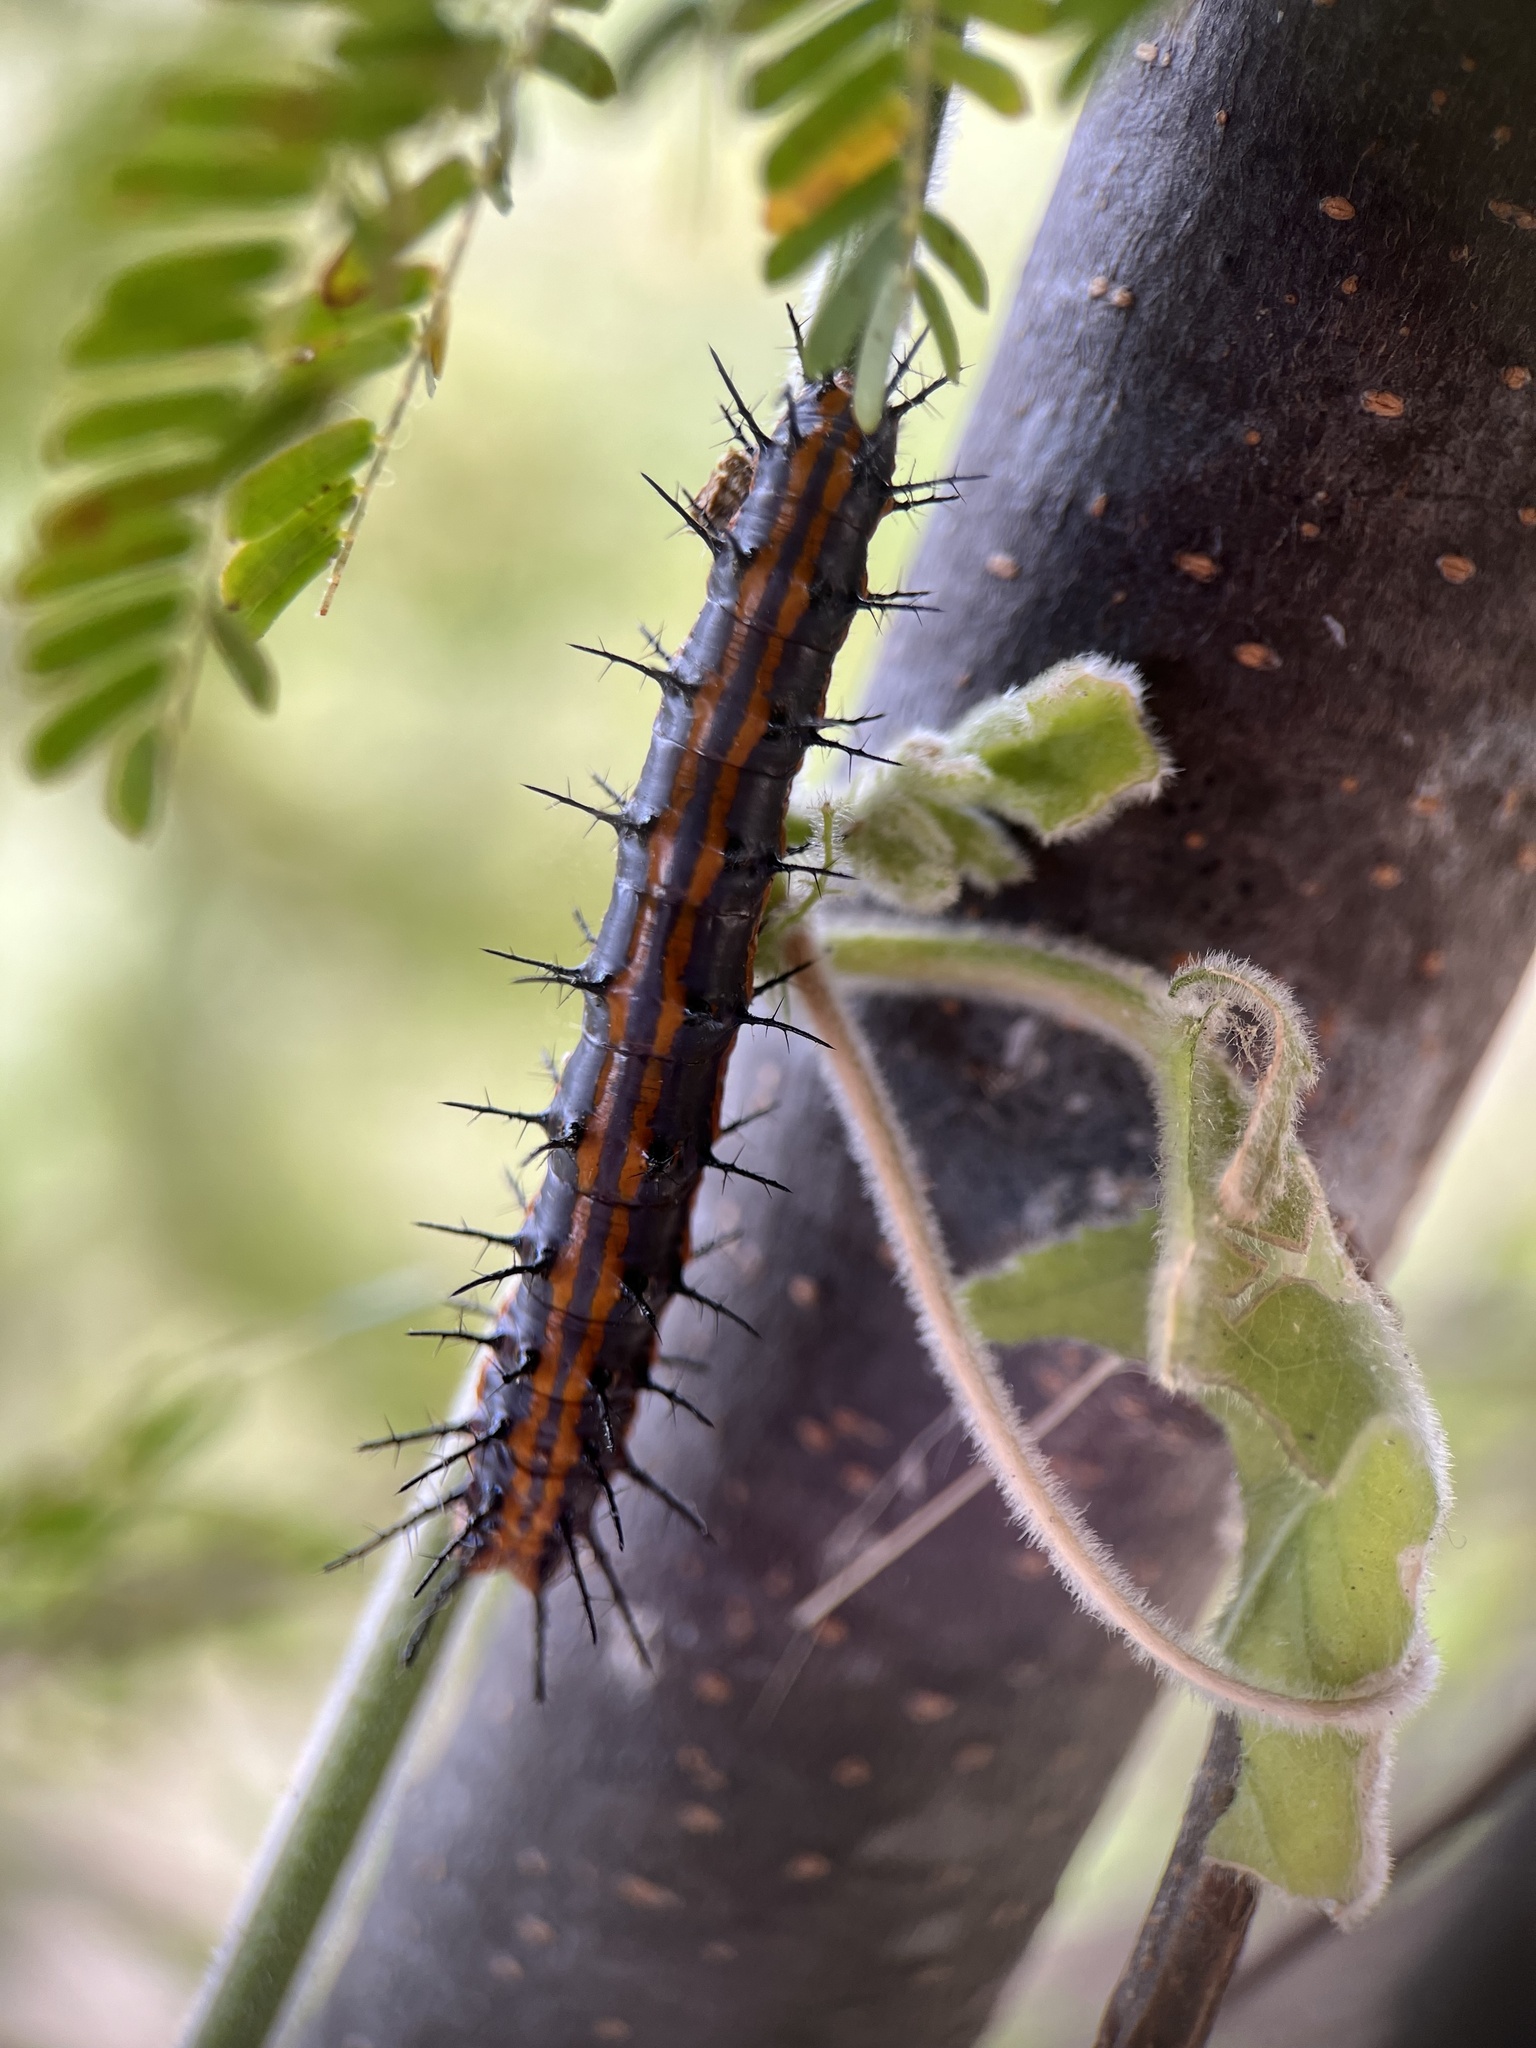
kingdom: Animalia
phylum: Arthropoda
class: Insecta
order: Lepidoptera
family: Nymphalidae
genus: Dione
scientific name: Dione vanillae
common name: Gulf fritillary
